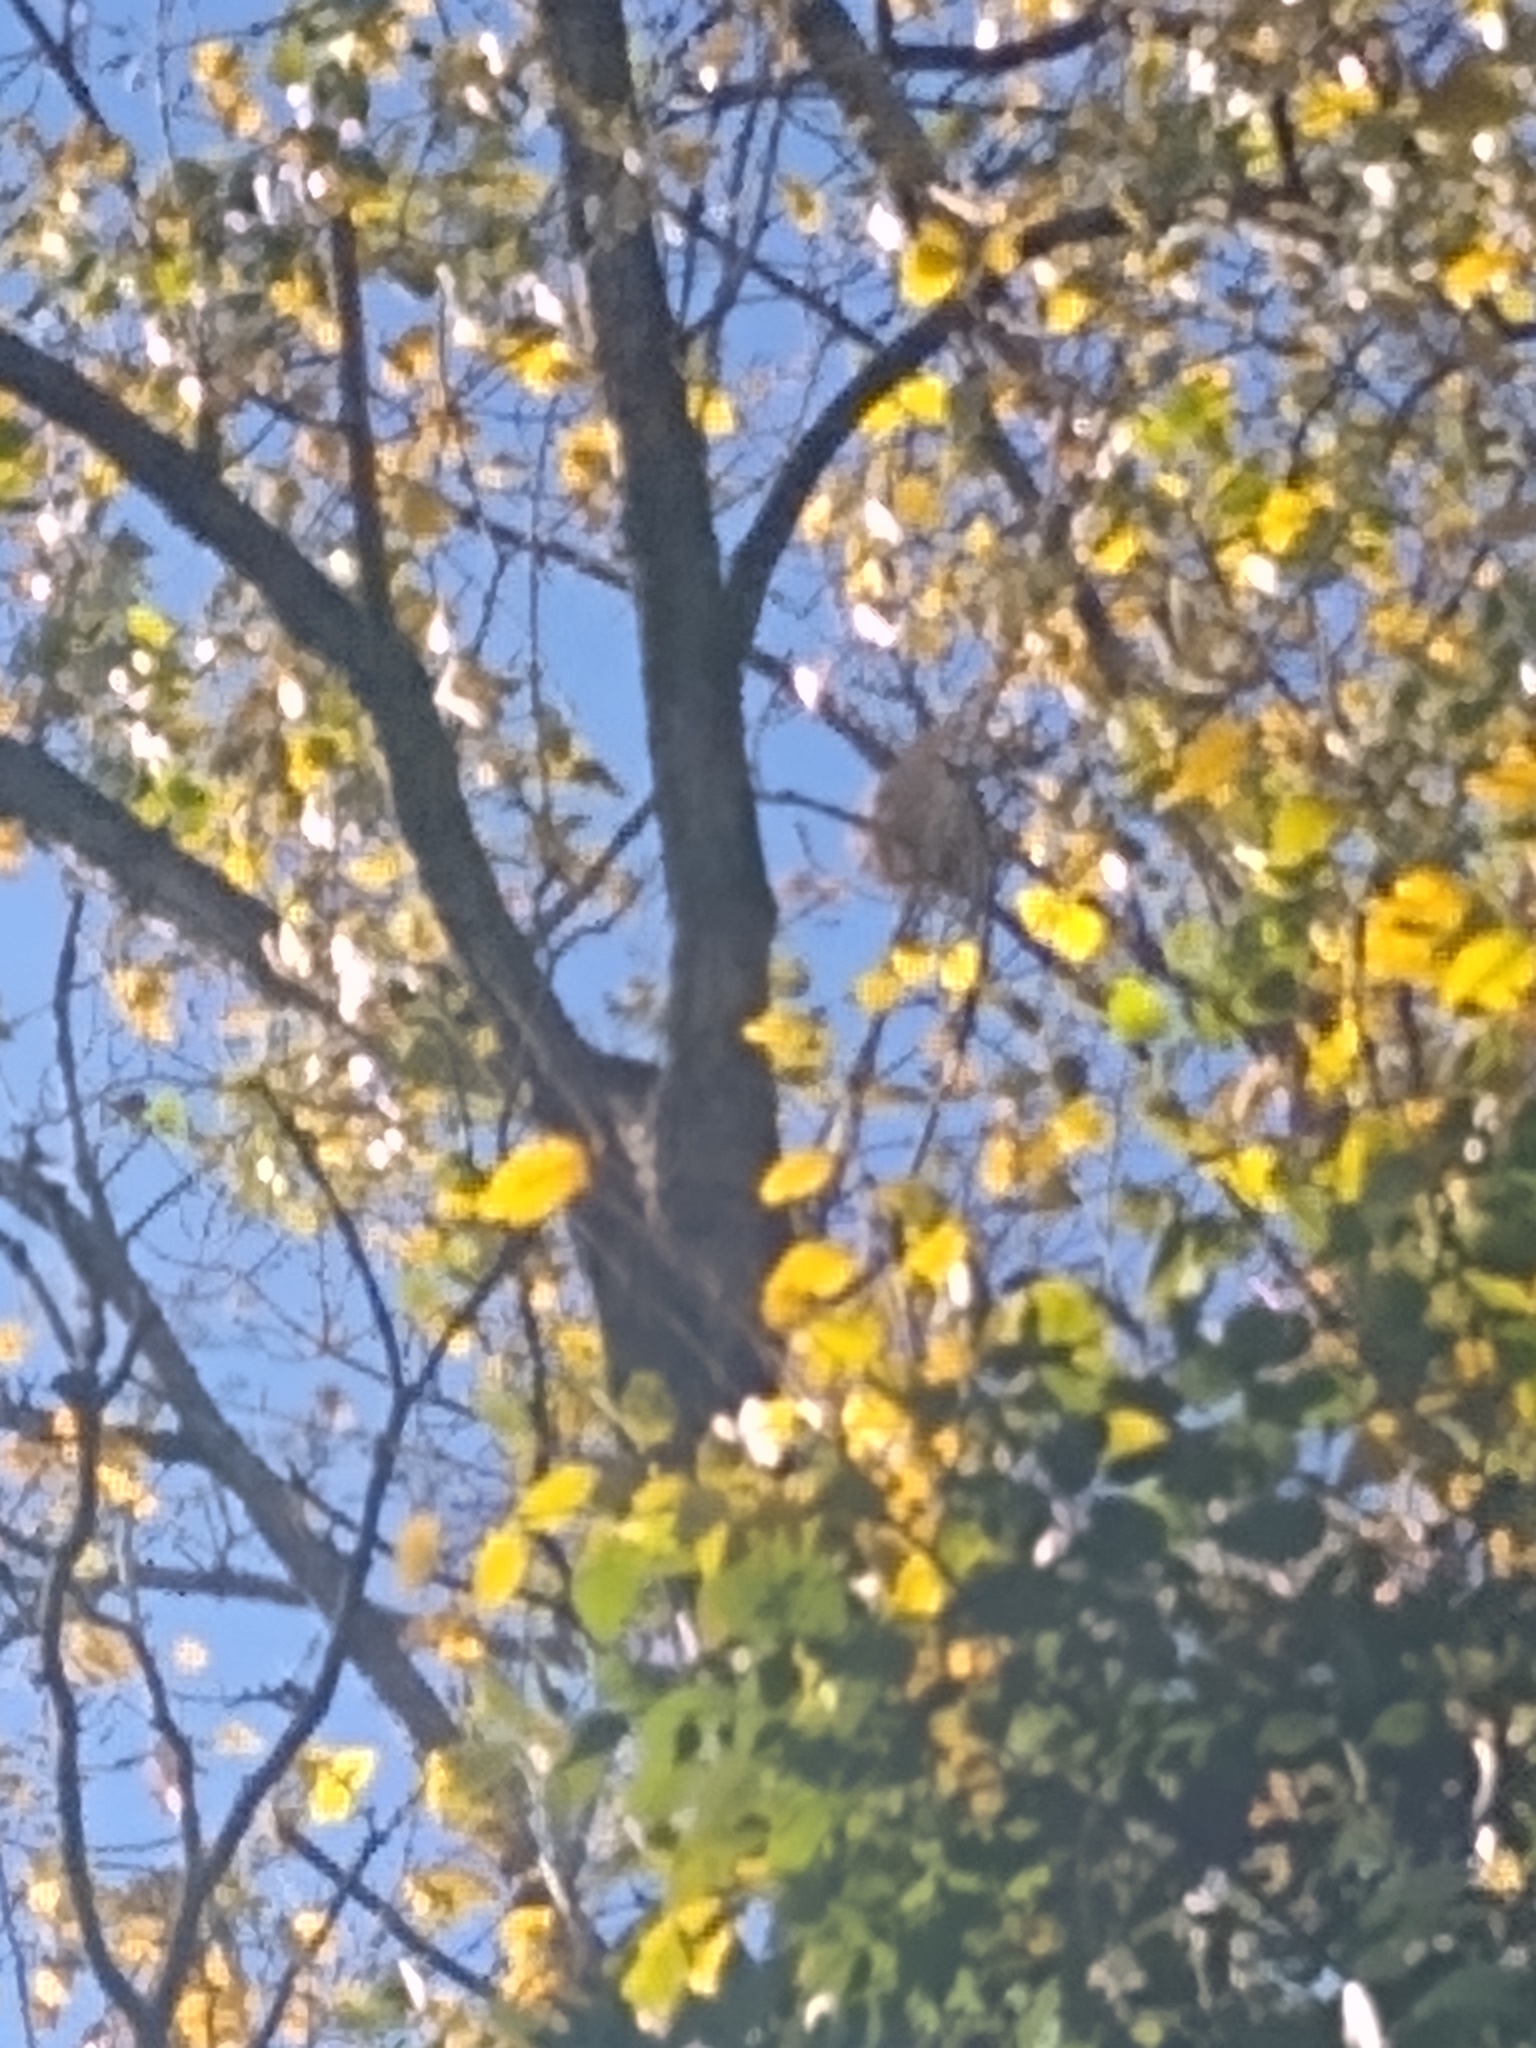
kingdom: Animalia
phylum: Arthropoda
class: Insecta
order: Hymenoptera
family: Vespidae
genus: Vespa
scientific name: Vespa velutina
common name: Asian hornet
